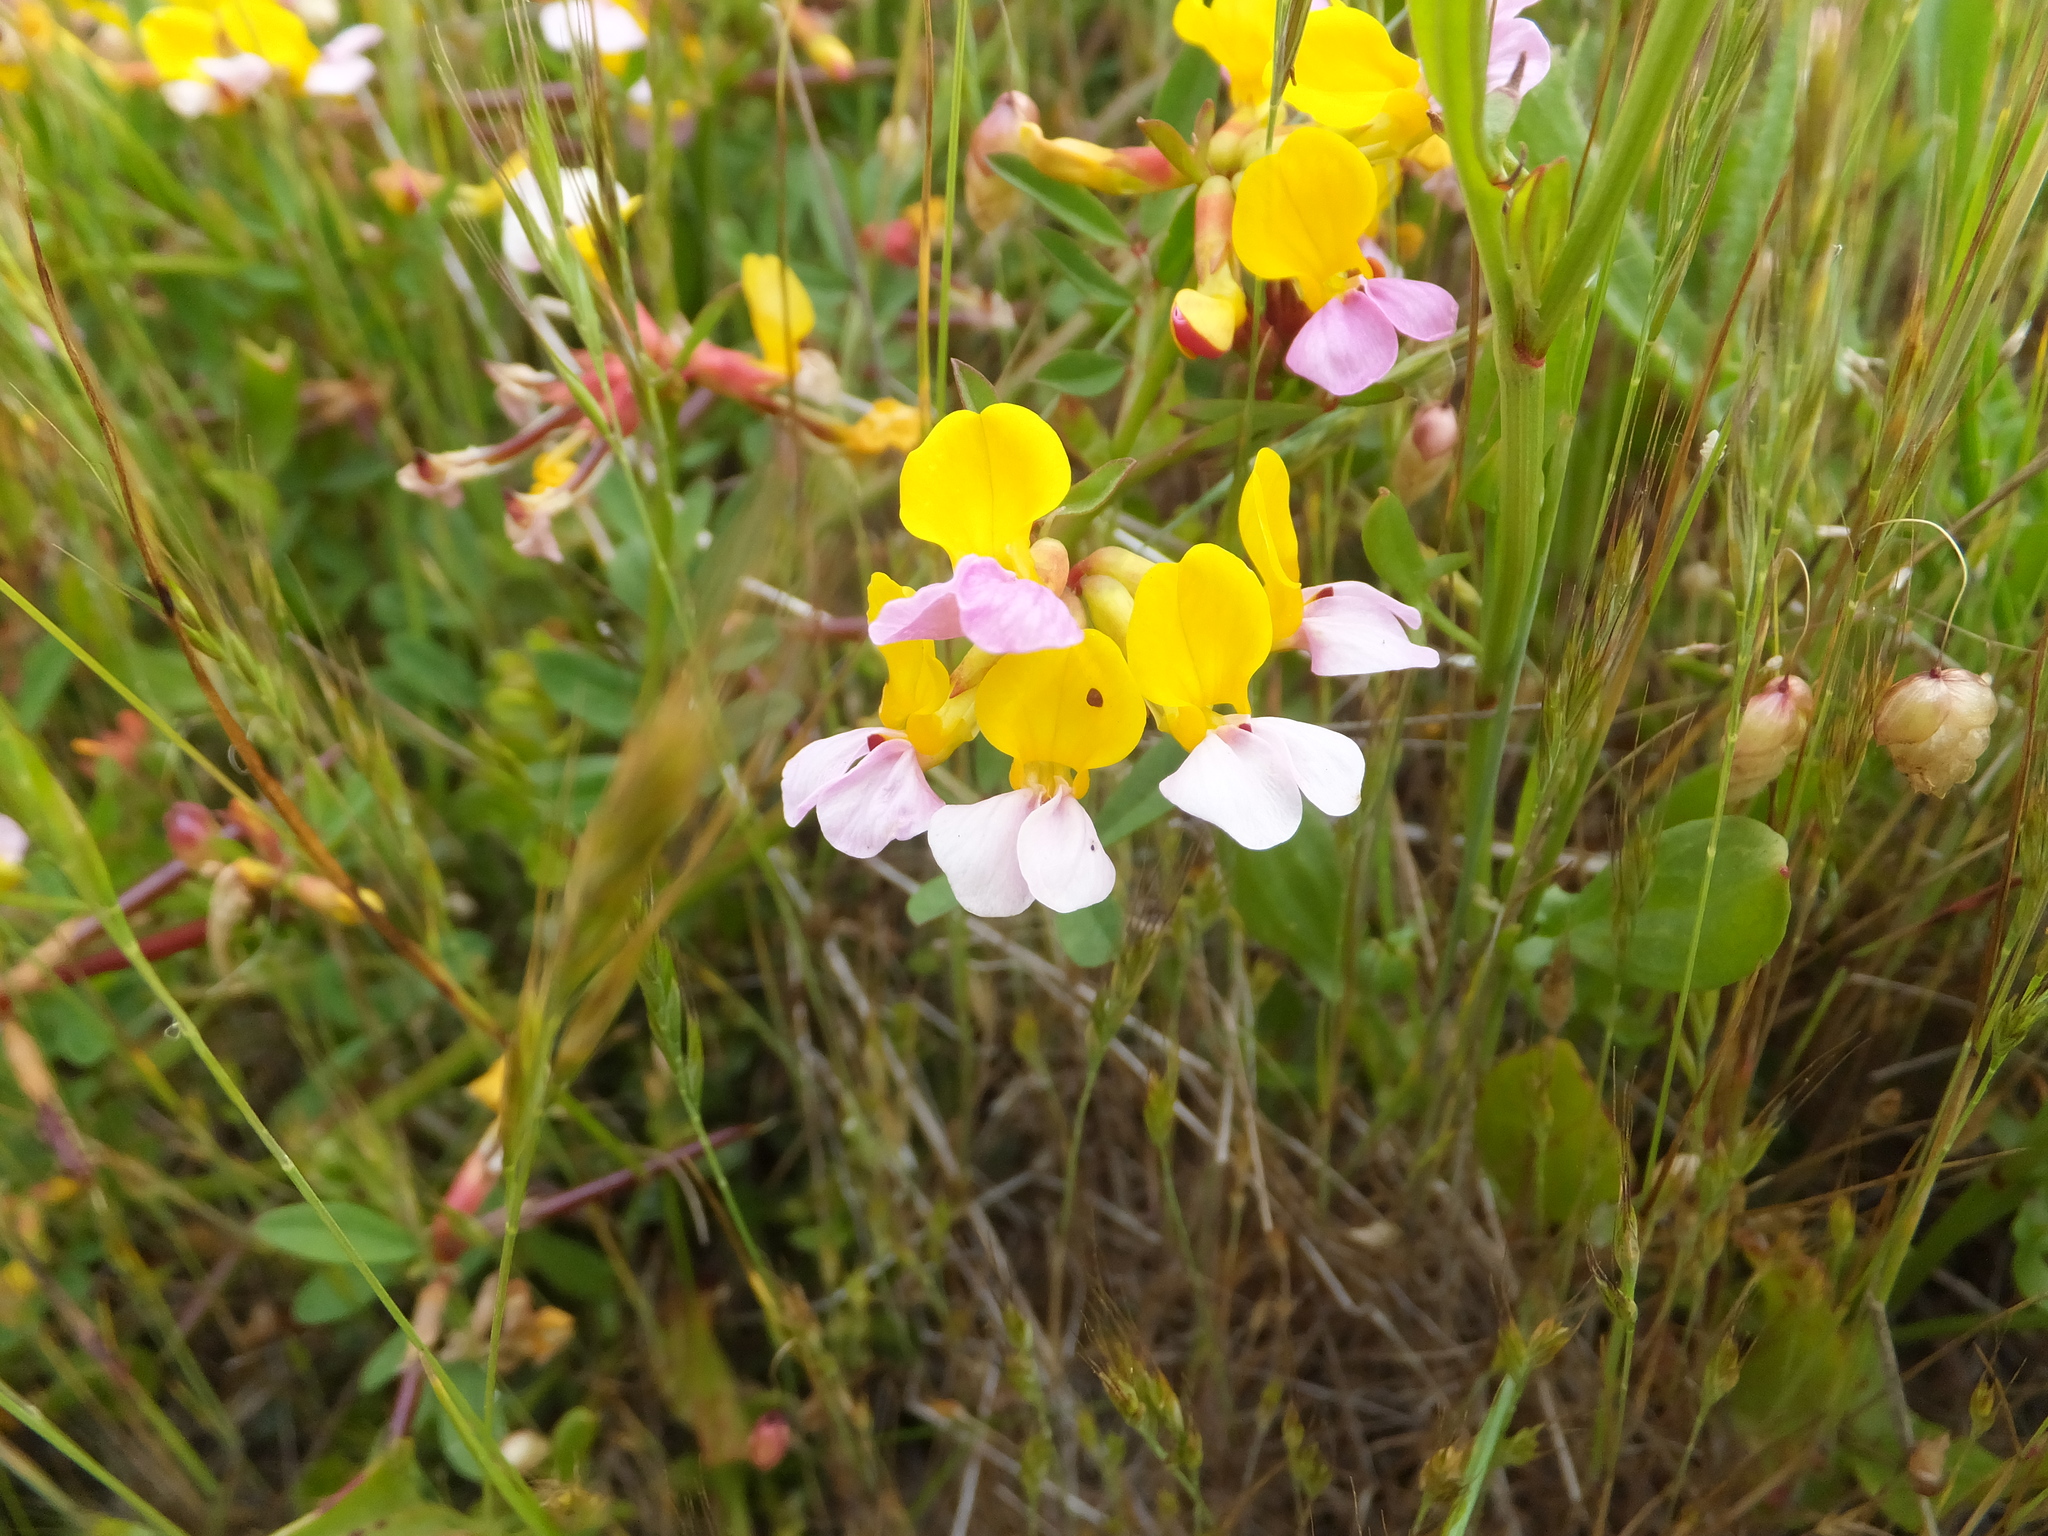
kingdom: Plantae
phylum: Tracheophyta
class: Magnoliopsida
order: Fabales
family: Fabaceae
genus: Hosackia
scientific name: Hosackia gracilis
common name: Seaside bird's-foot lotus
